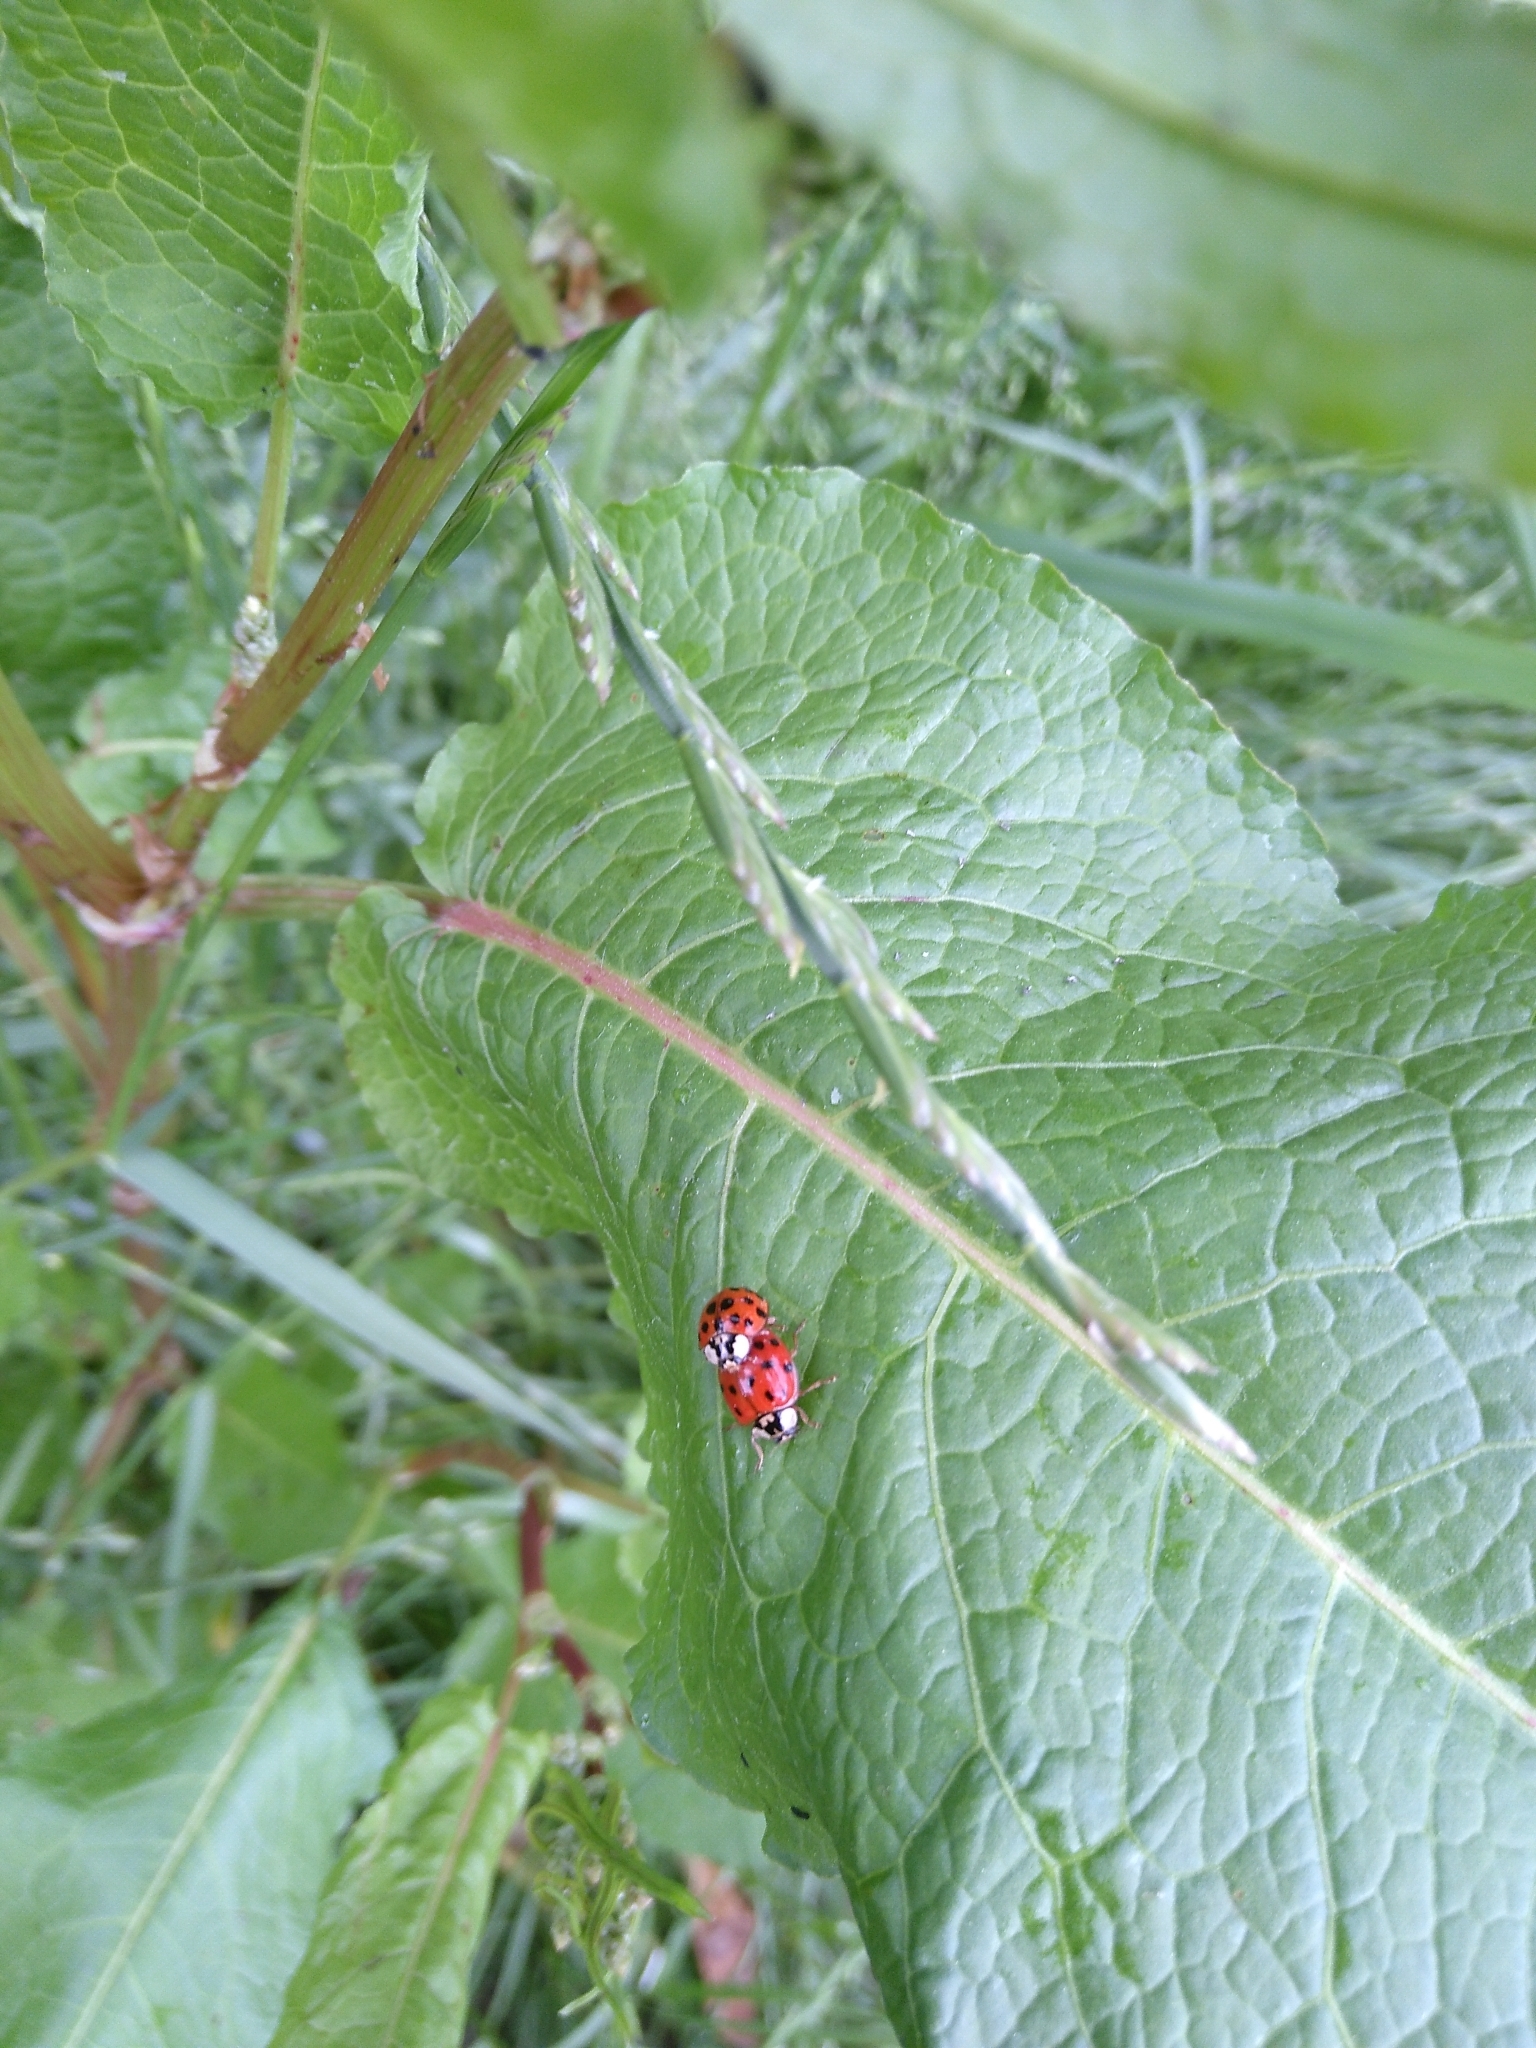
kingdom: Animalia
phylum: Arthropoda
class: Insecta
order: Coleoptera
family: Coccinellidae
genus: Harmonia
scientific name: Harmonia axyridis
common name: Harlequin ladybird
